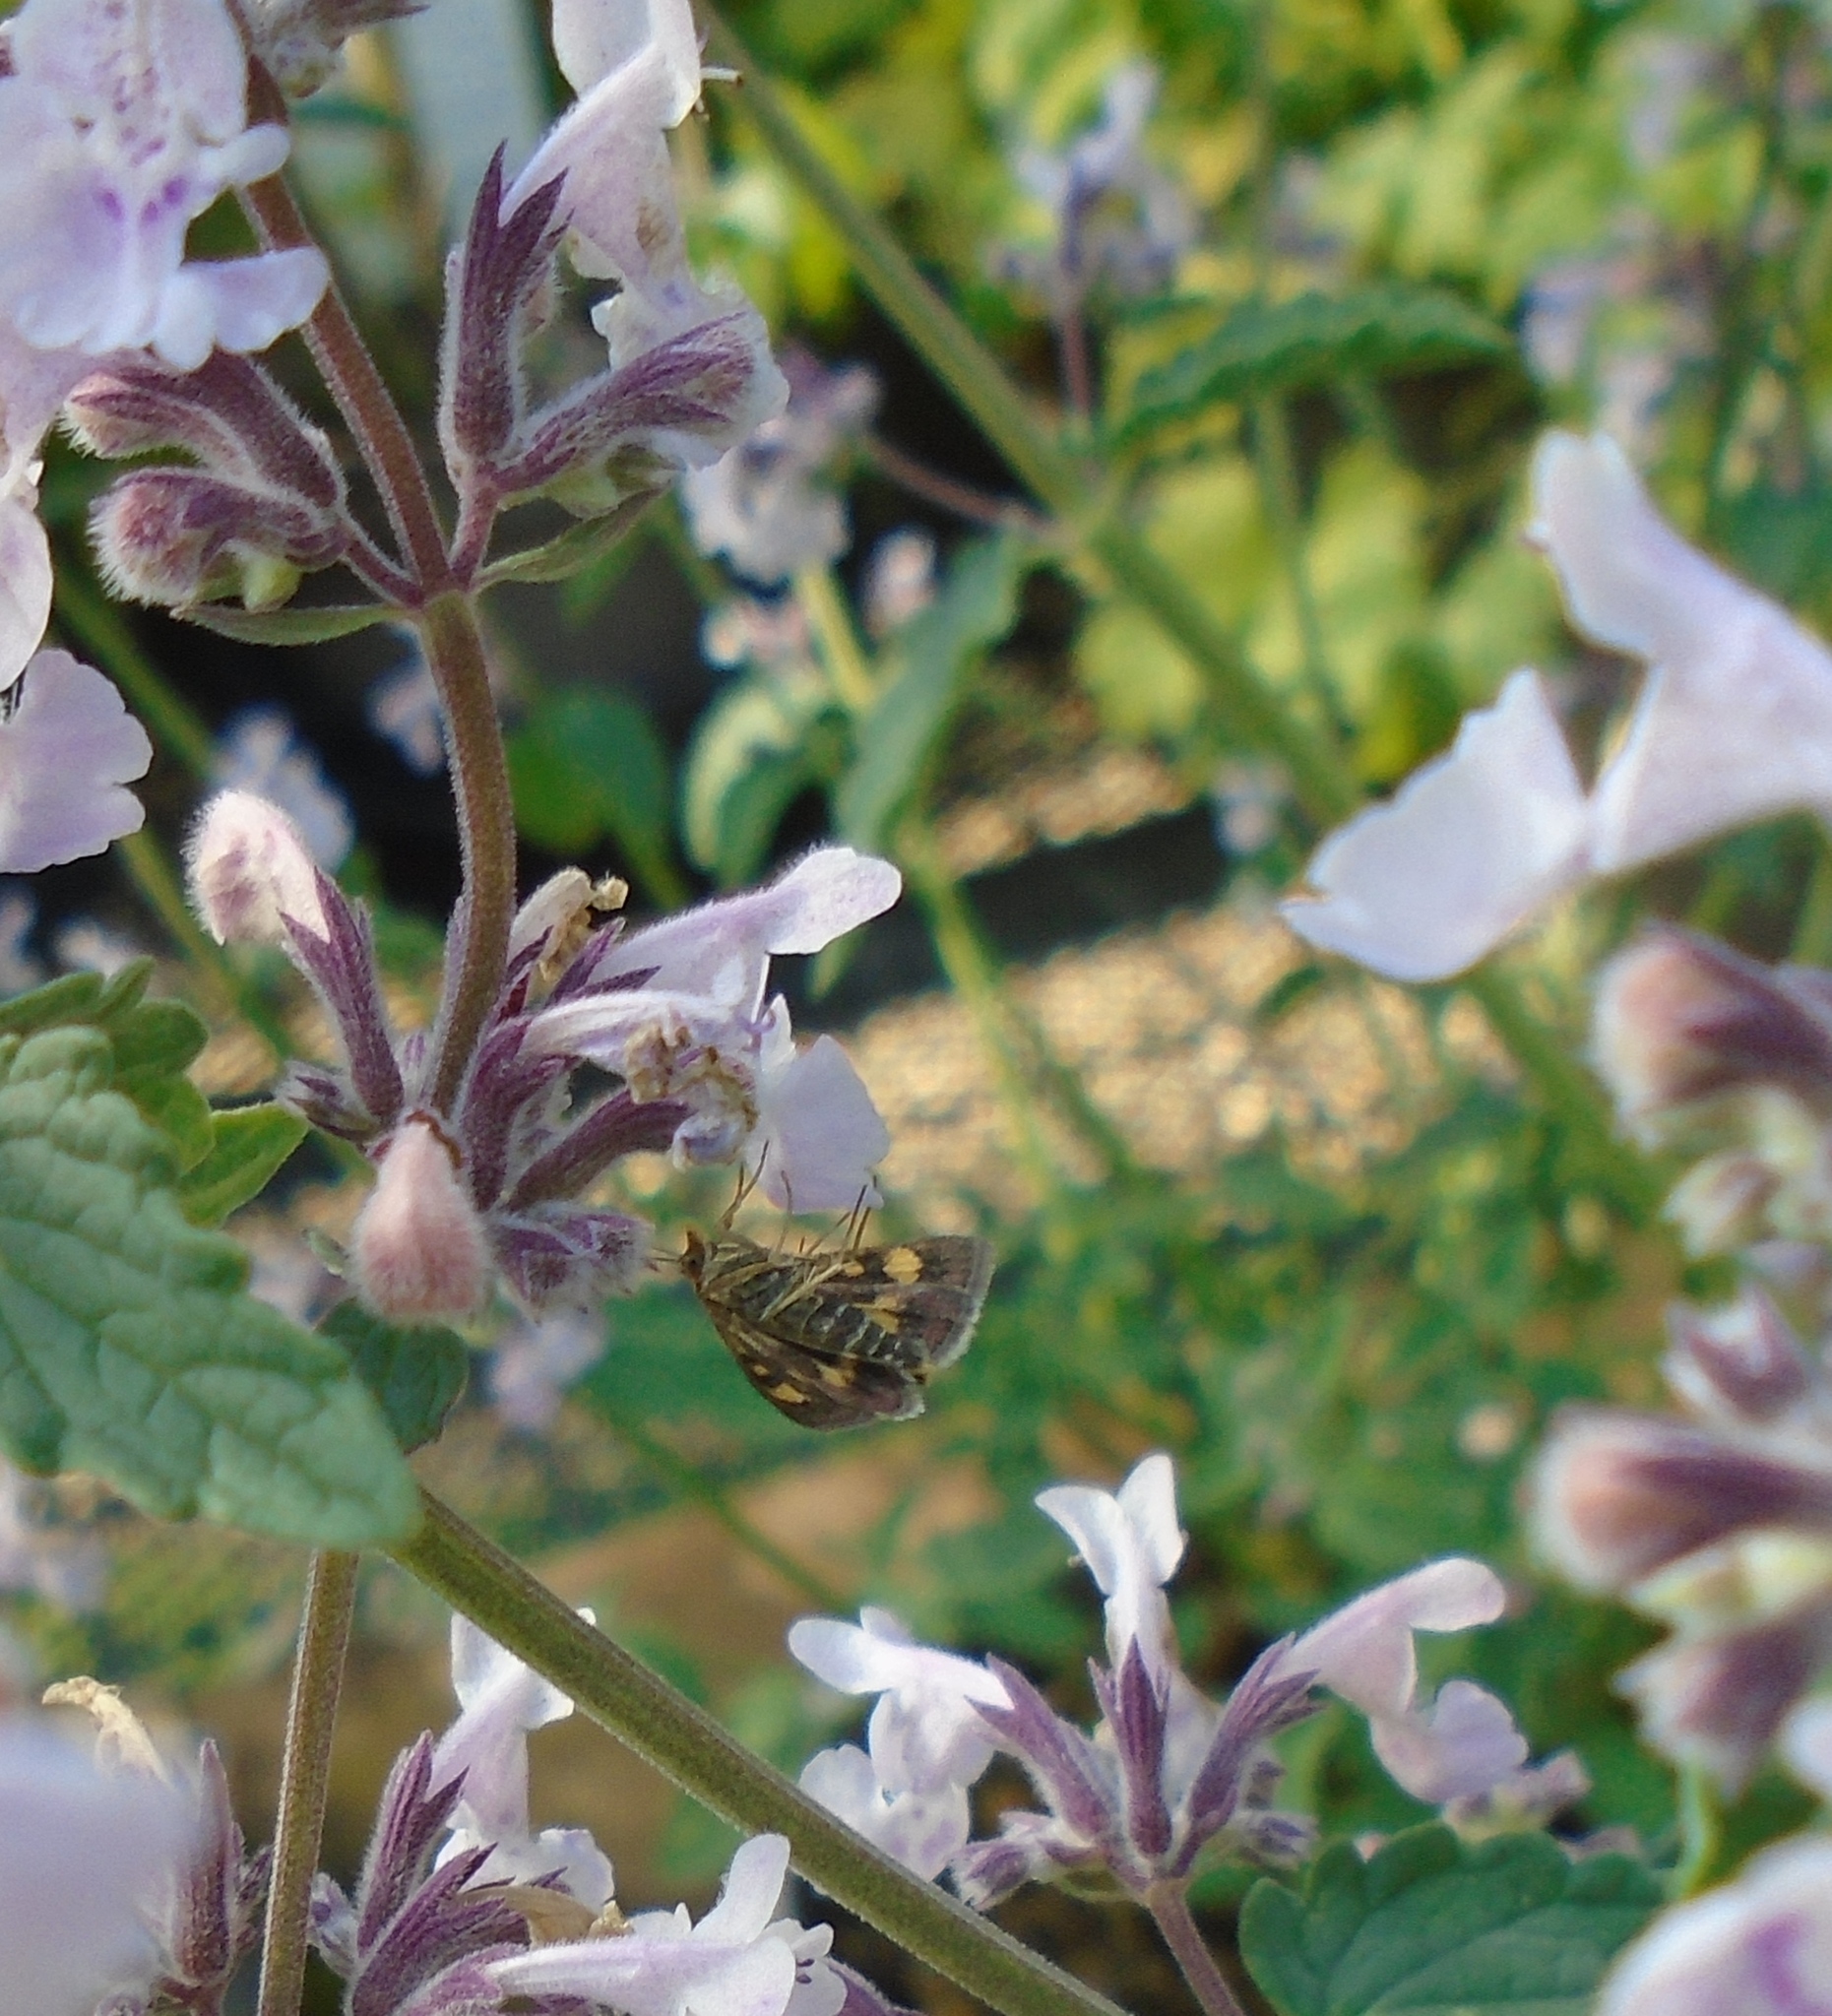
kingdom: Animalia
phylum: Arthropoda
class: Insecta
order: Lepidoptera
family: Crambidae
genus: Pyrausta
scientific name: Pyrausta aurata
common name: Small purple & gold
